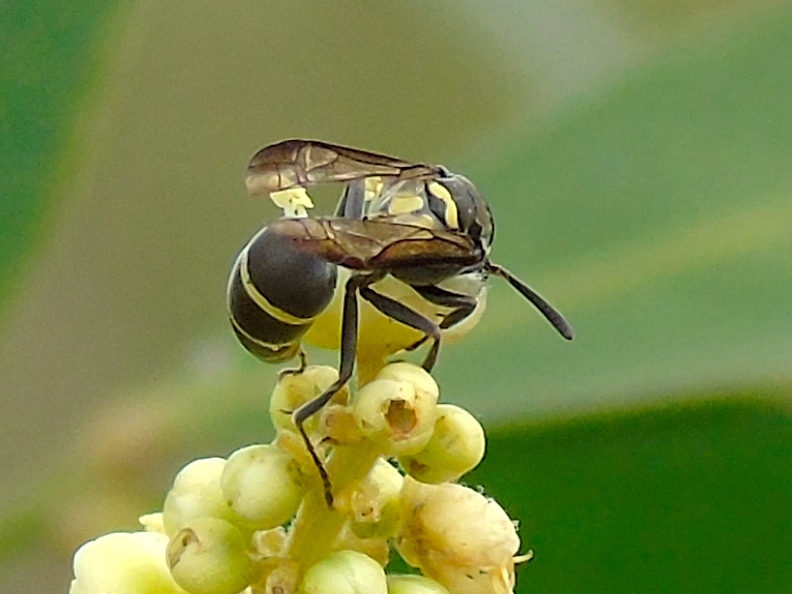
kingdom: Animalia
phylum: Arthropoda
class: Insecta
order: Hymenoptera
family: Vespidae
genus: Myrapetra
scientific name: Myrapetra
